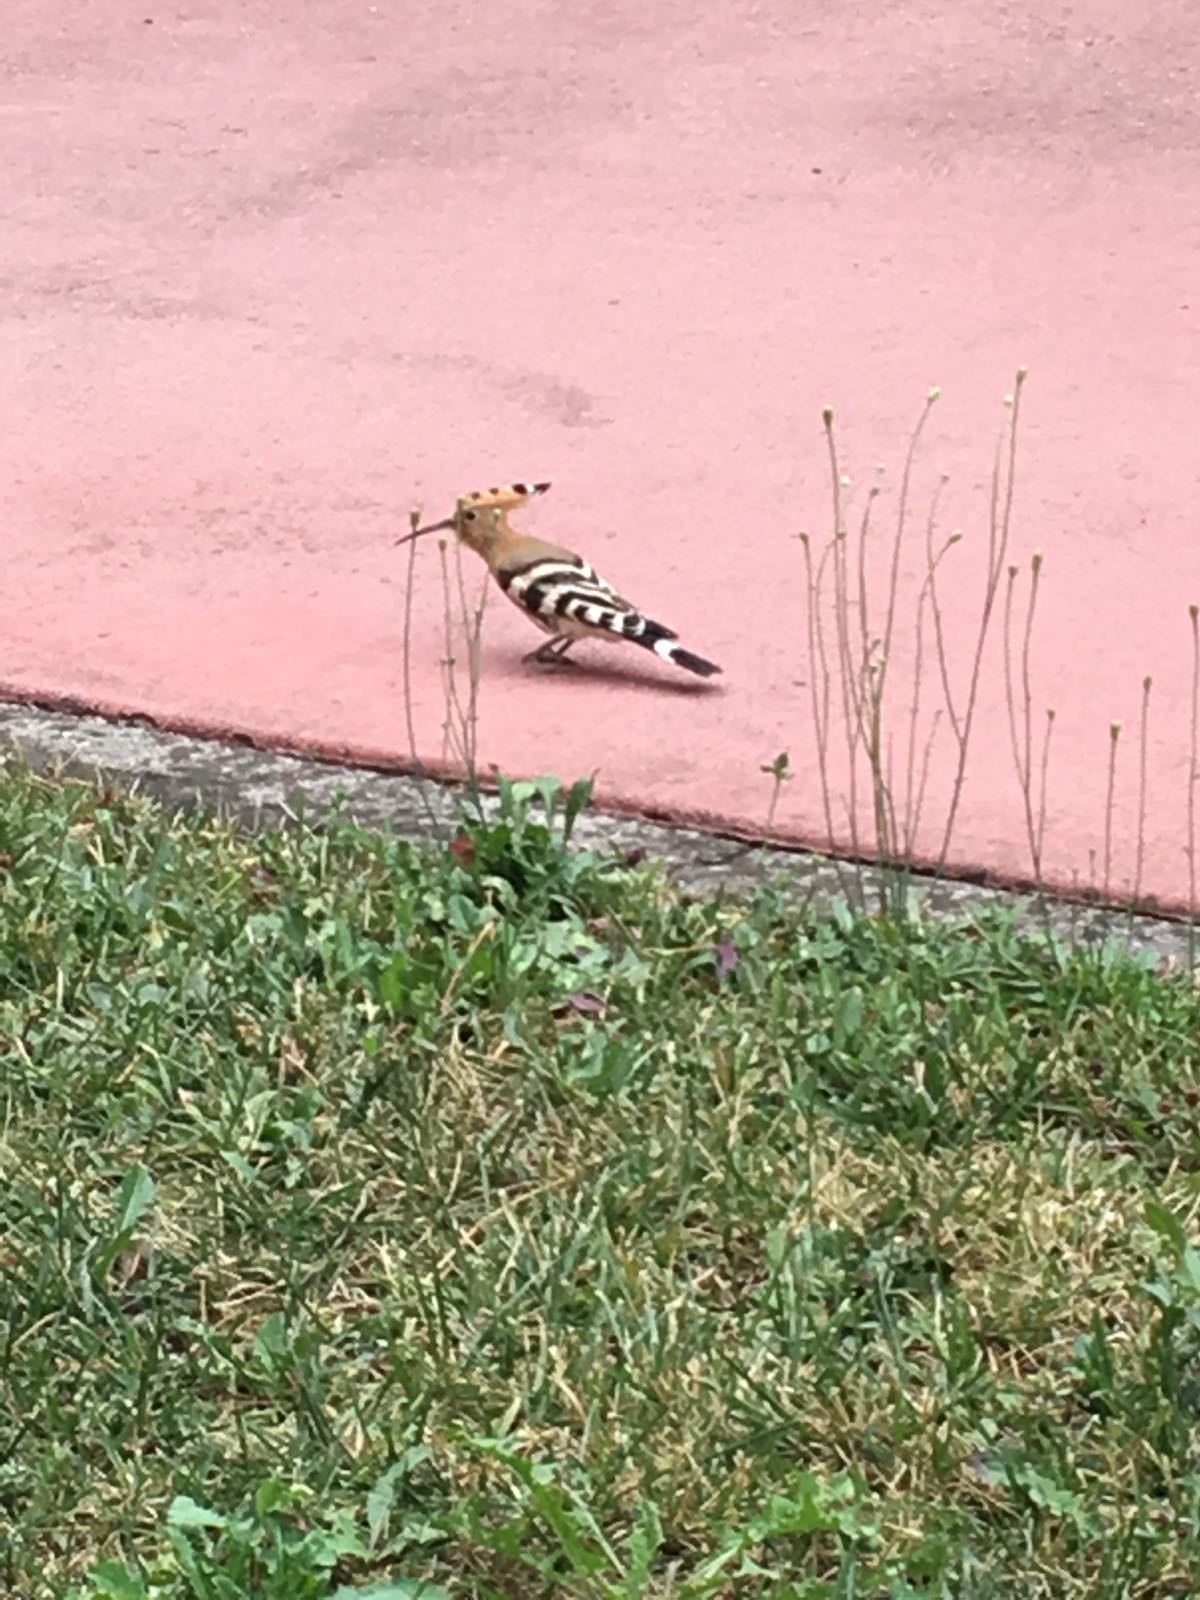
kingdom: Animalia
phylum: Chordata
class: Aves
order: Bucerotiformes
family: Upupidae
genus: Upupa
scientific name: Upupa epops
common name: Eurasian hoopoe
